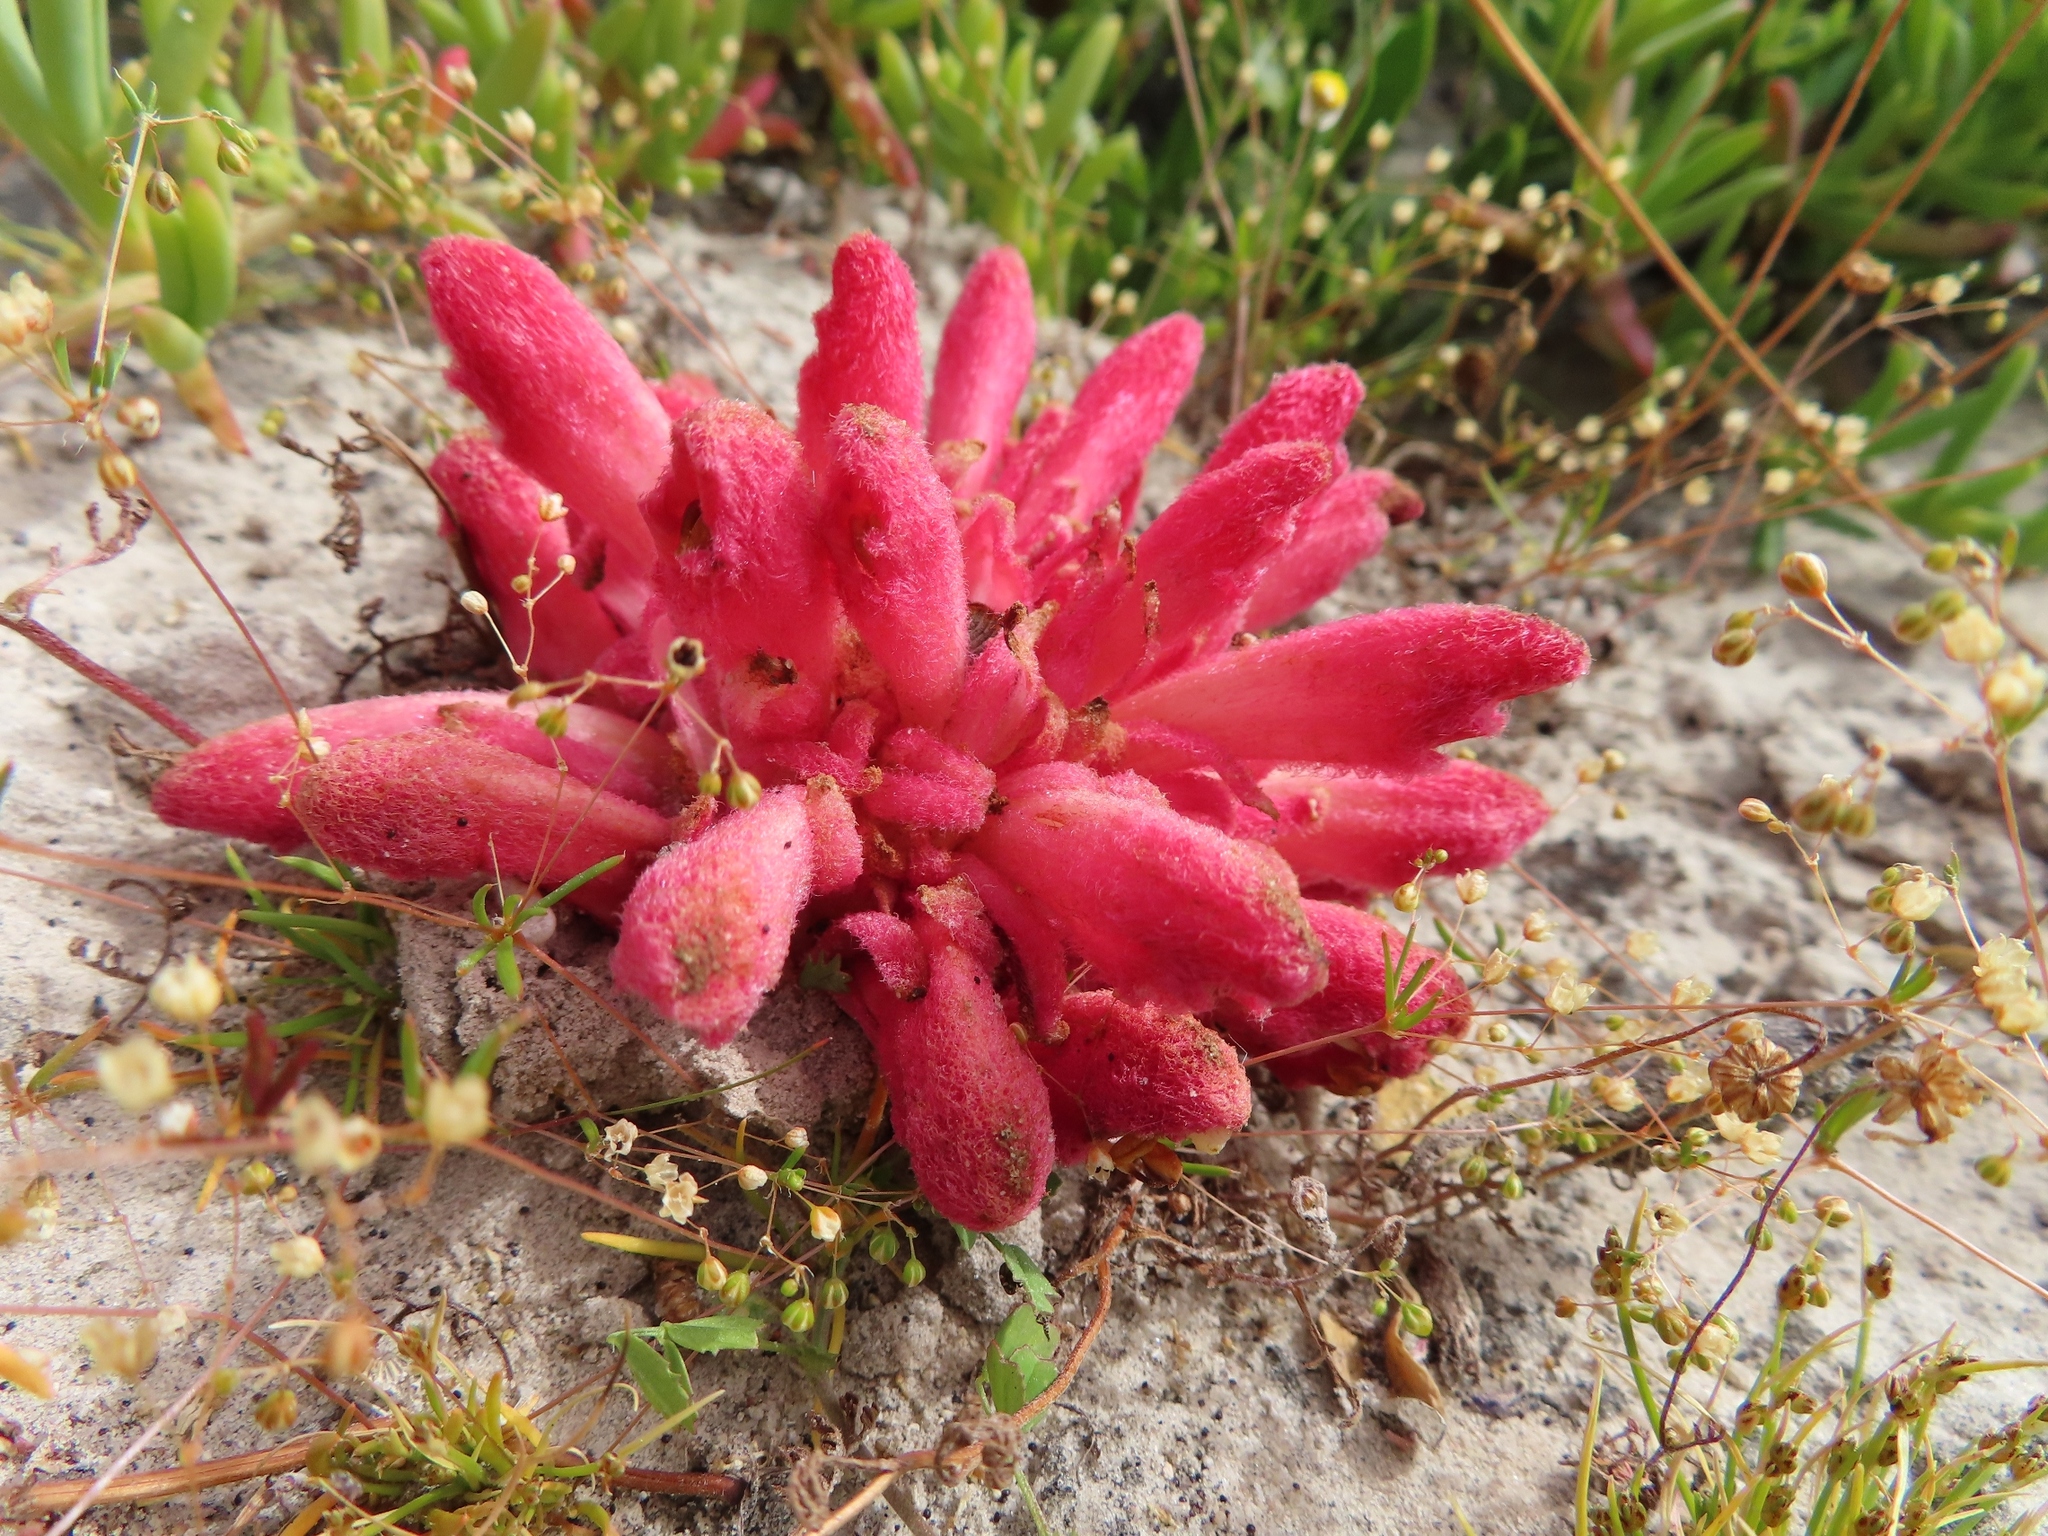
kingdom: Plantae
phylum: Tracheophyta
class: Magnoliopsida
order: Lamiales
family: Orobanchaceae
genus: Hyobanche
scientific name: Hyobanche sanguinea
